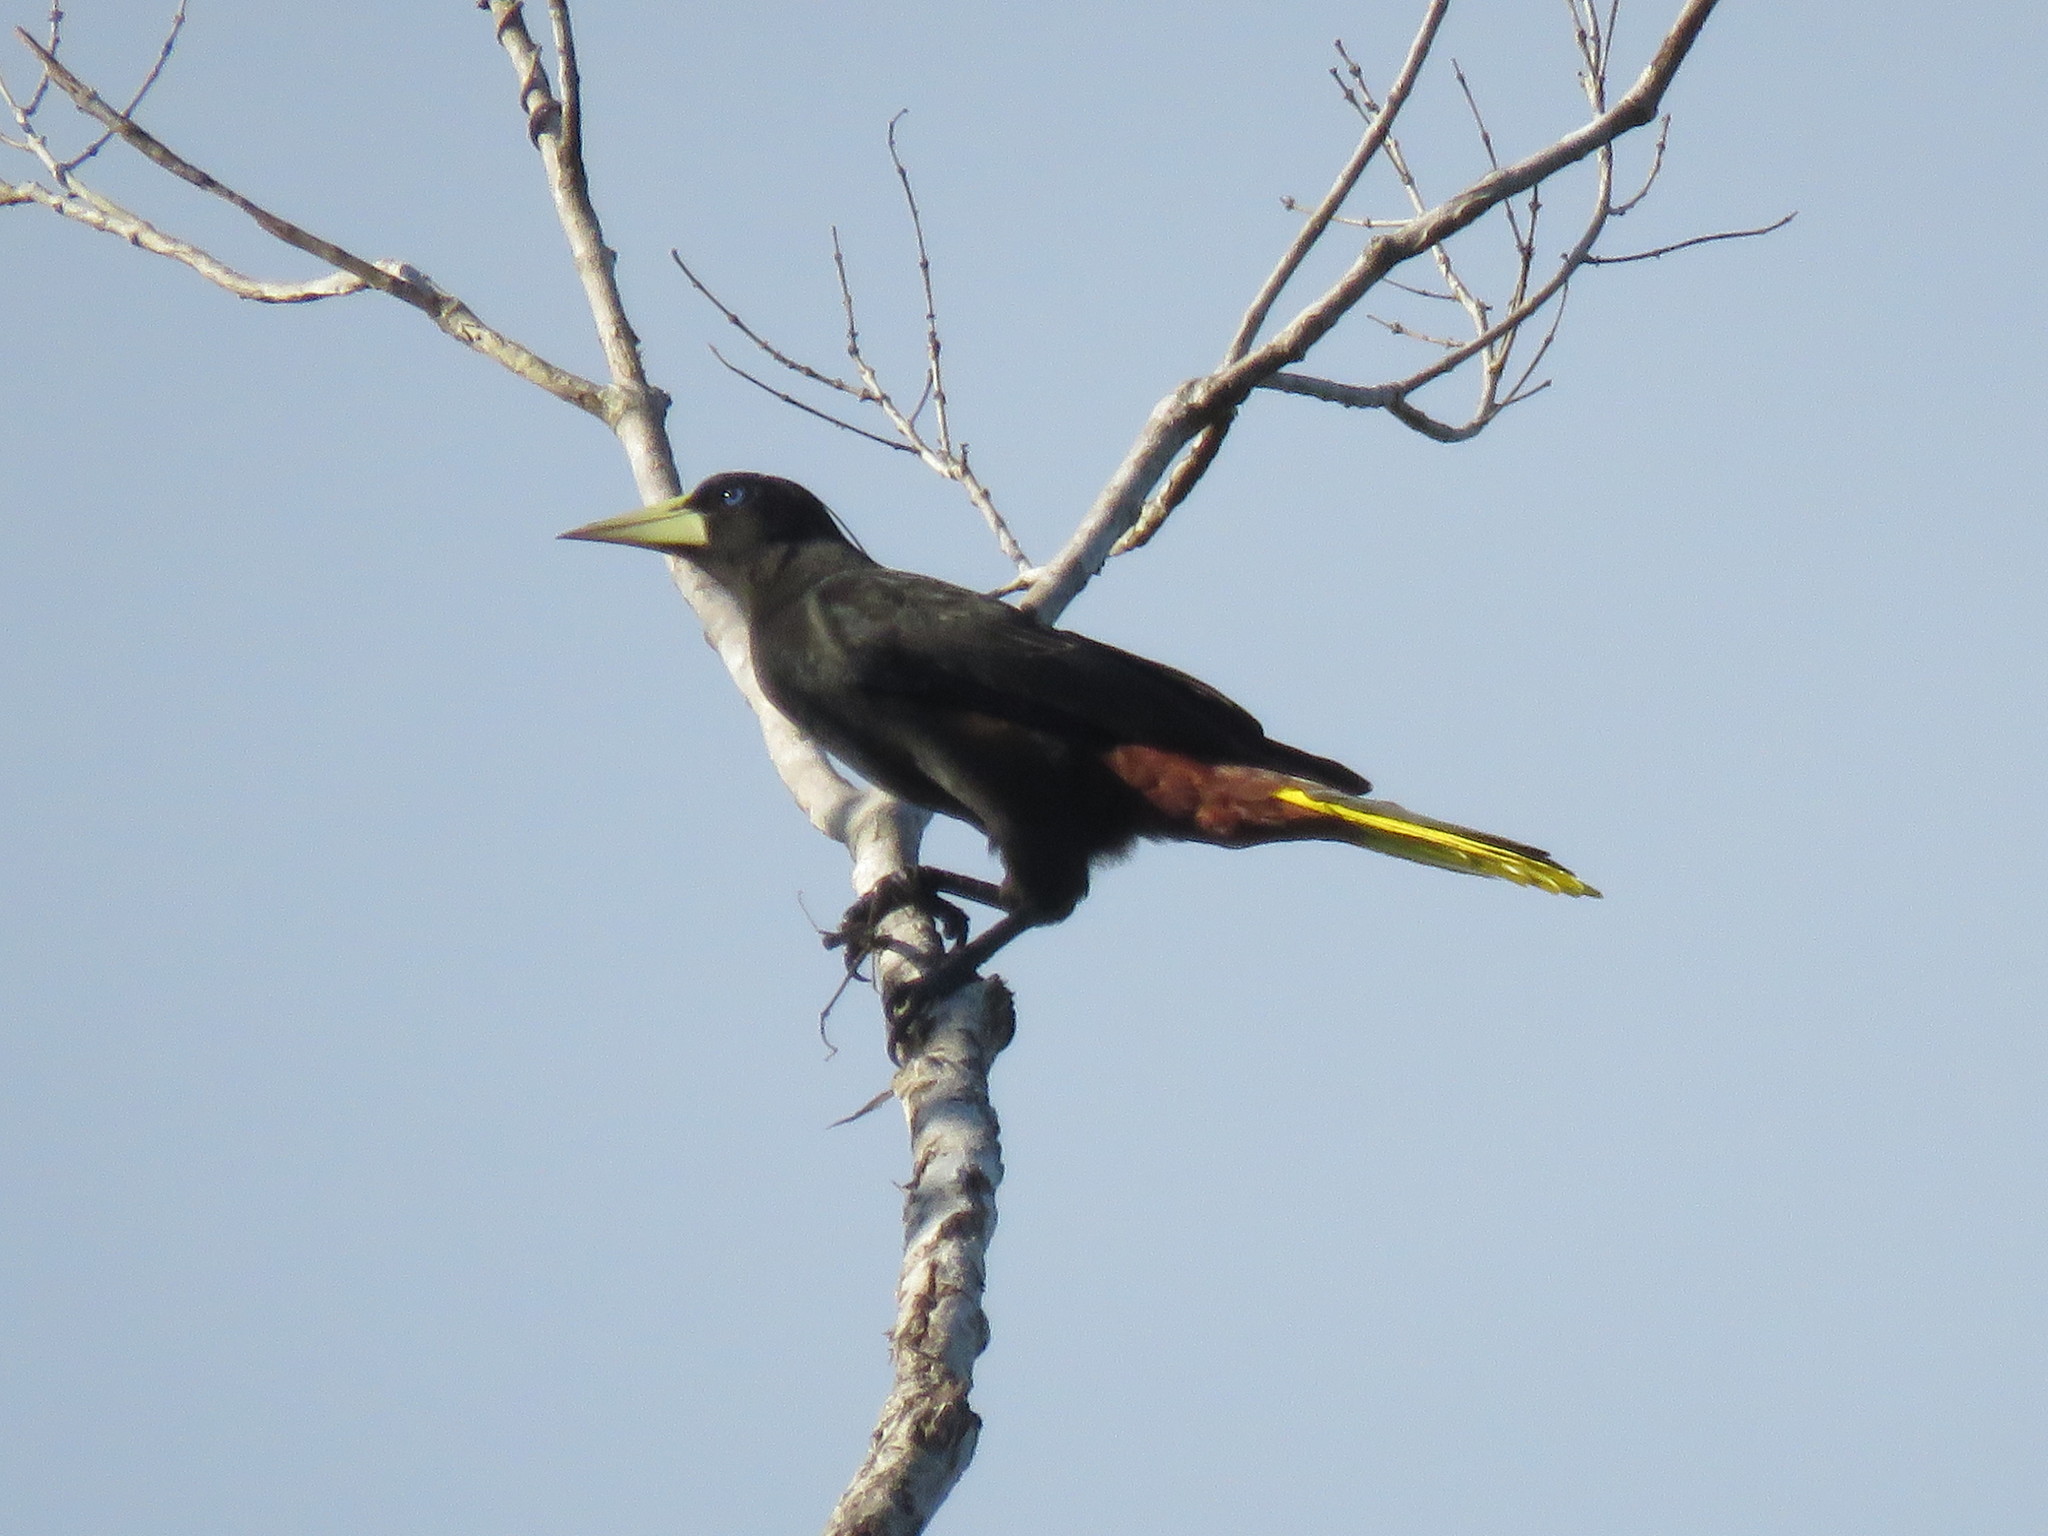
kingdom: Animalia
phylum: Chordata
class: Aves
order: Passeriformes
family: Icteridae
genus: Psarocolius
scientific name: Psarocolius decumanus
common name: Crested oropendola
